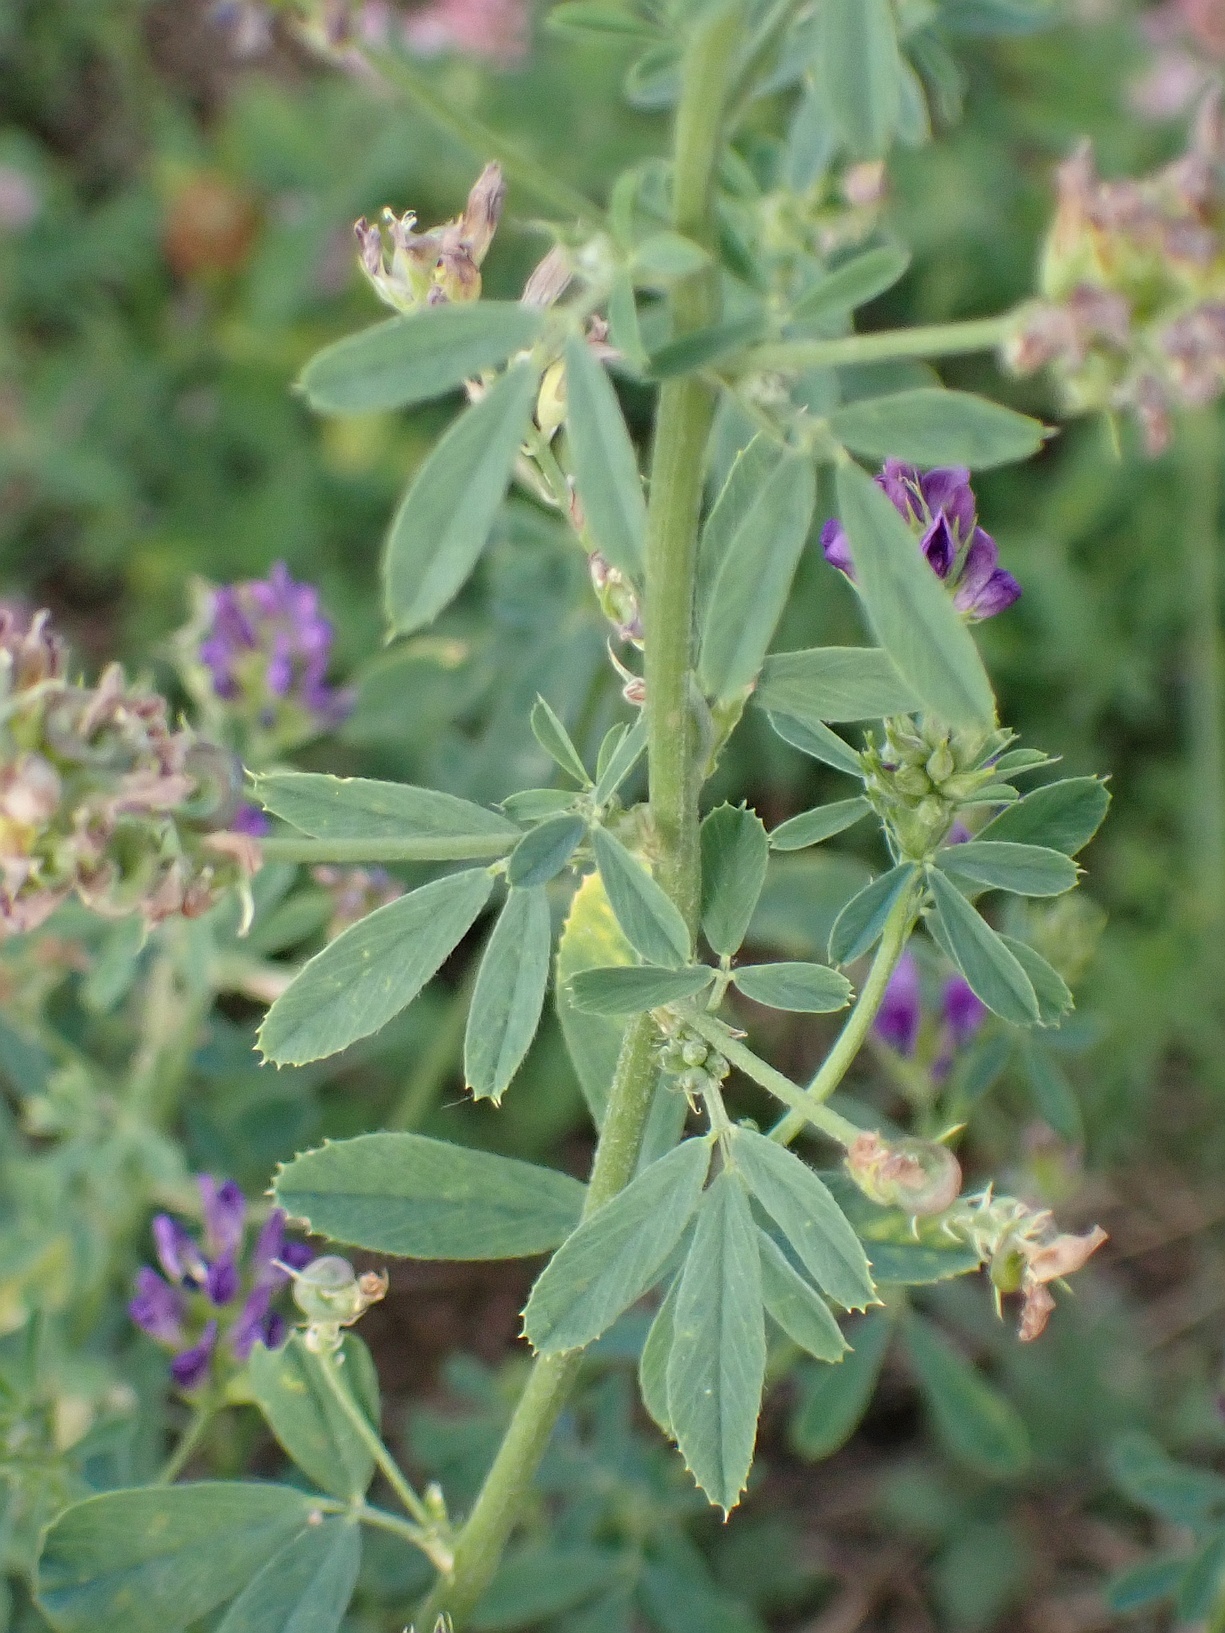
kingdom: Plantae
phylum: Tracheophyta
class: Magnoliopsida
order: Fabales
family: Fabaceae
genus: Medicago
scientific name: Medicago sativa
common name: Alfalfa
